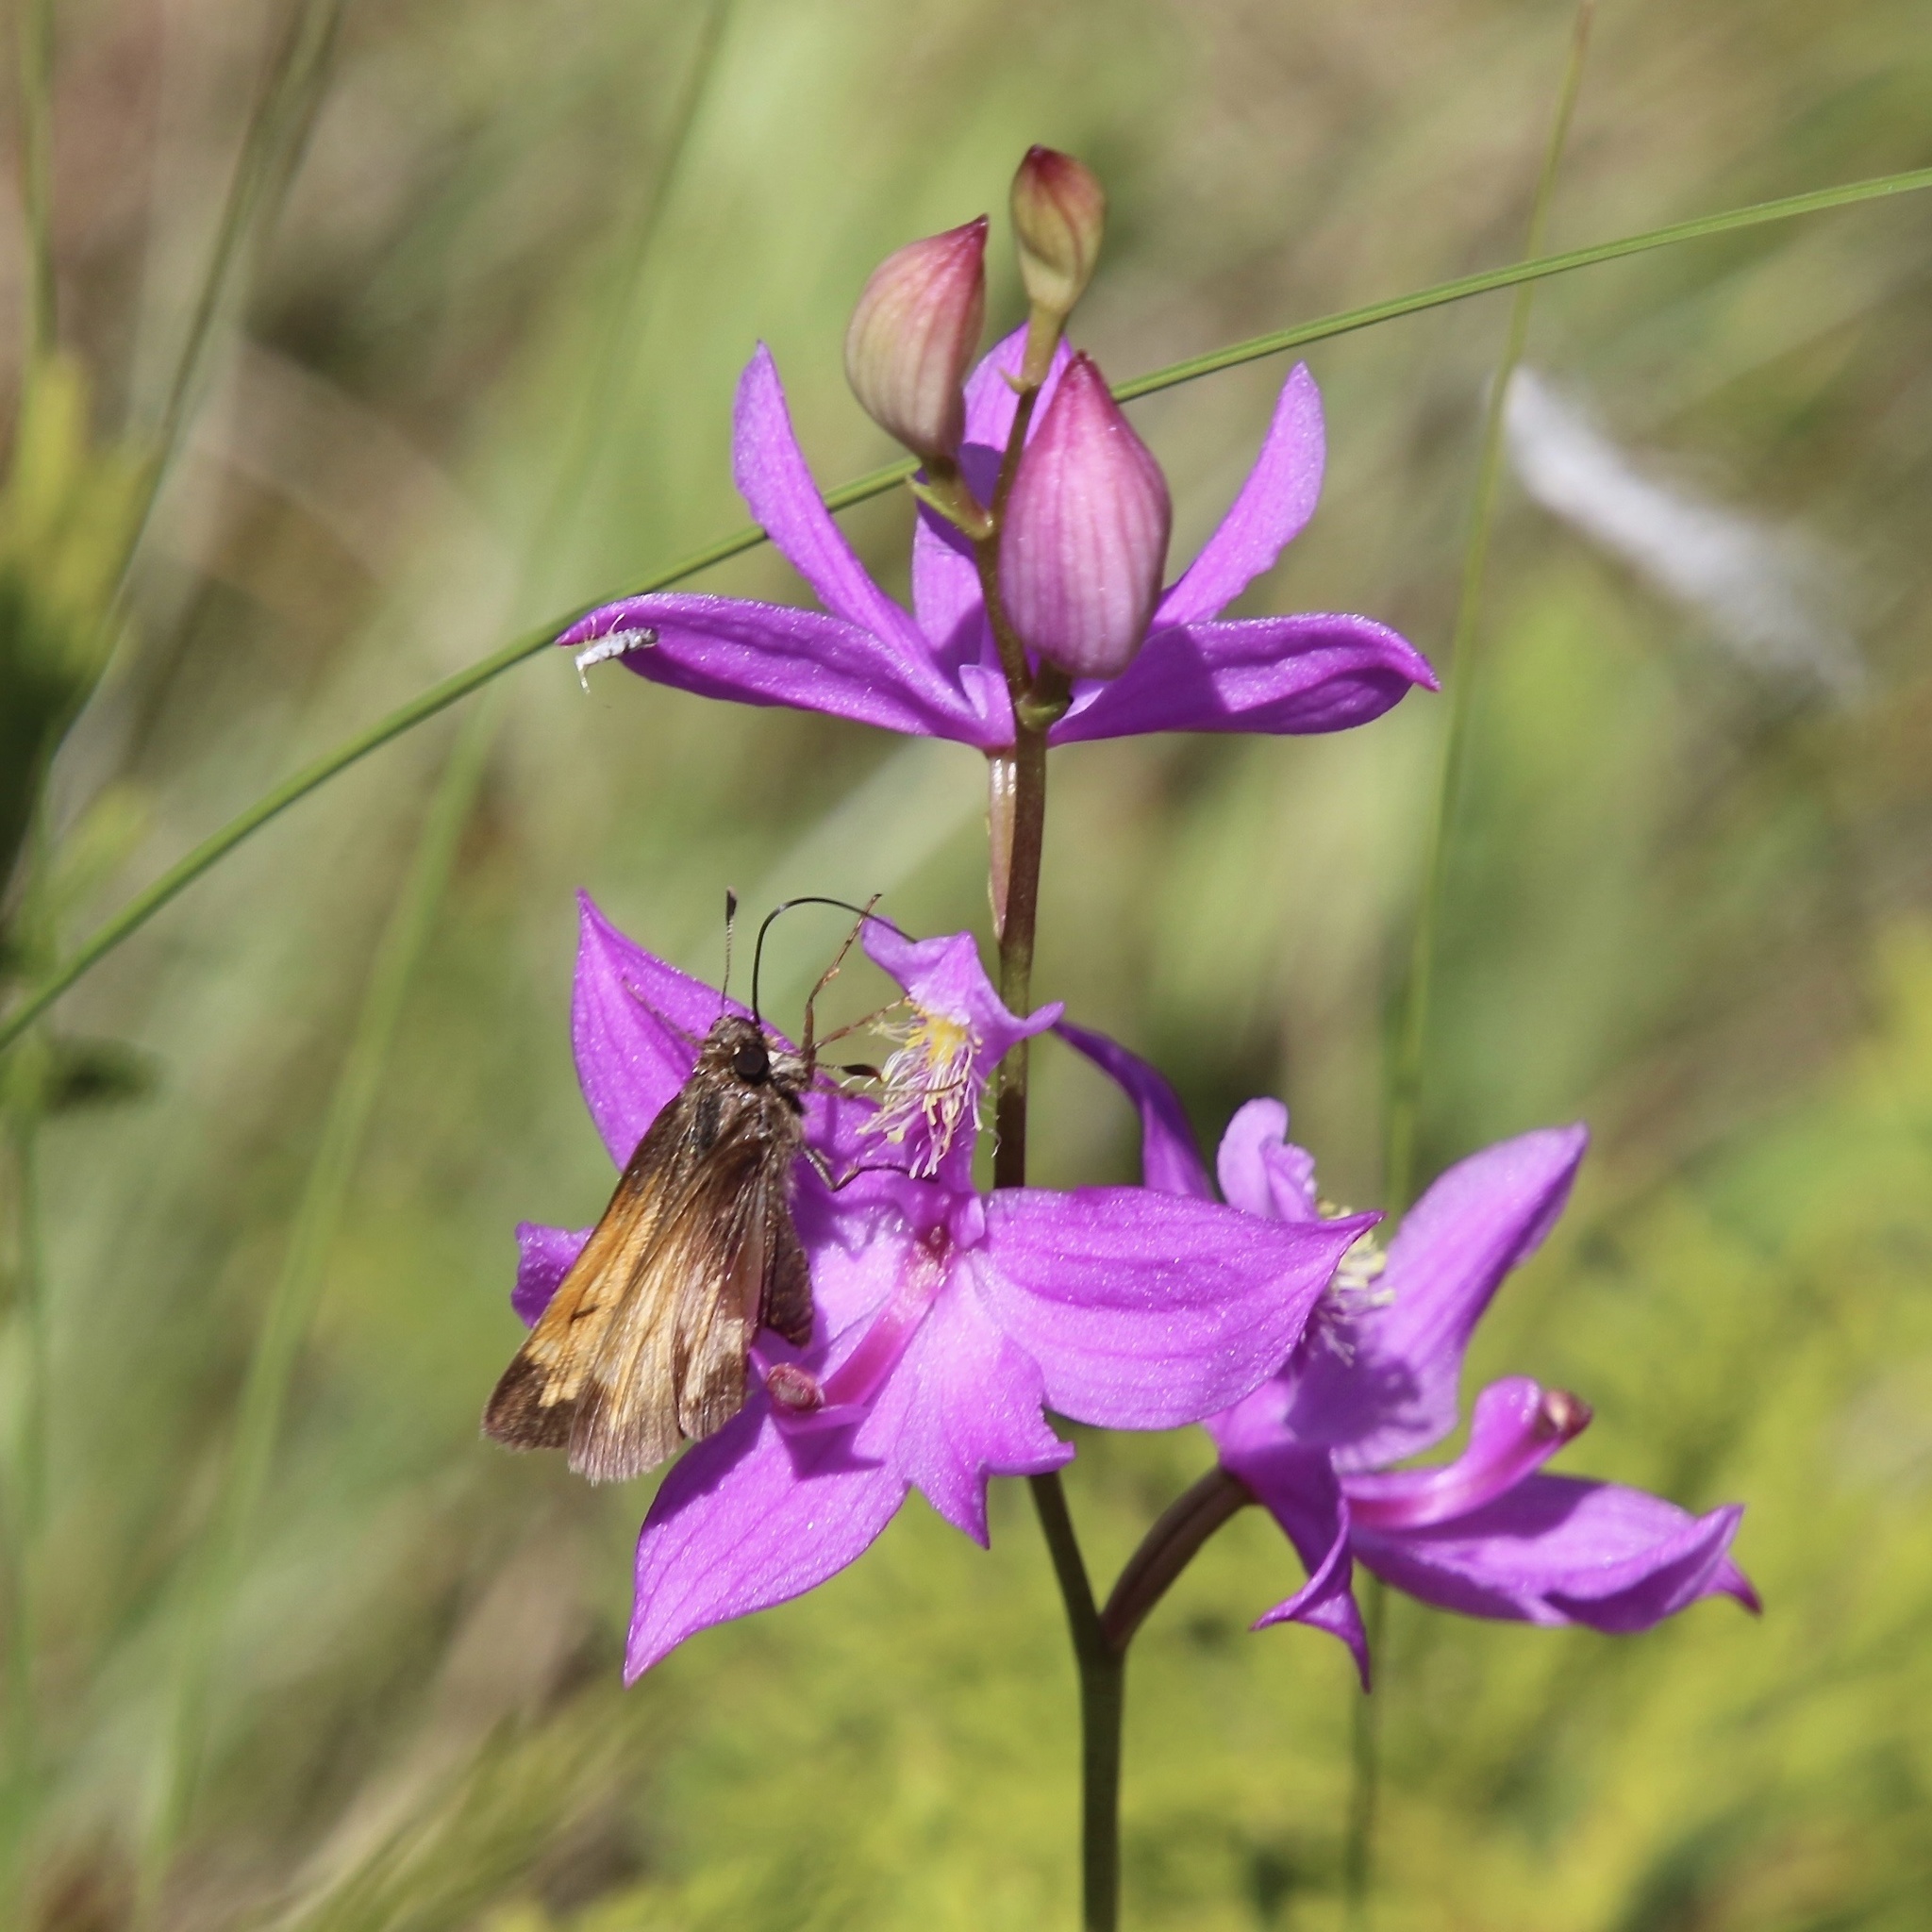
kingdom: Animalia
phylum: Arthropoda
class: Insecta
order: Lepidoptera
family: Hesperiidae
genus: Lon
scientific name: Lon hobomok
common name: Hobomok skipper
